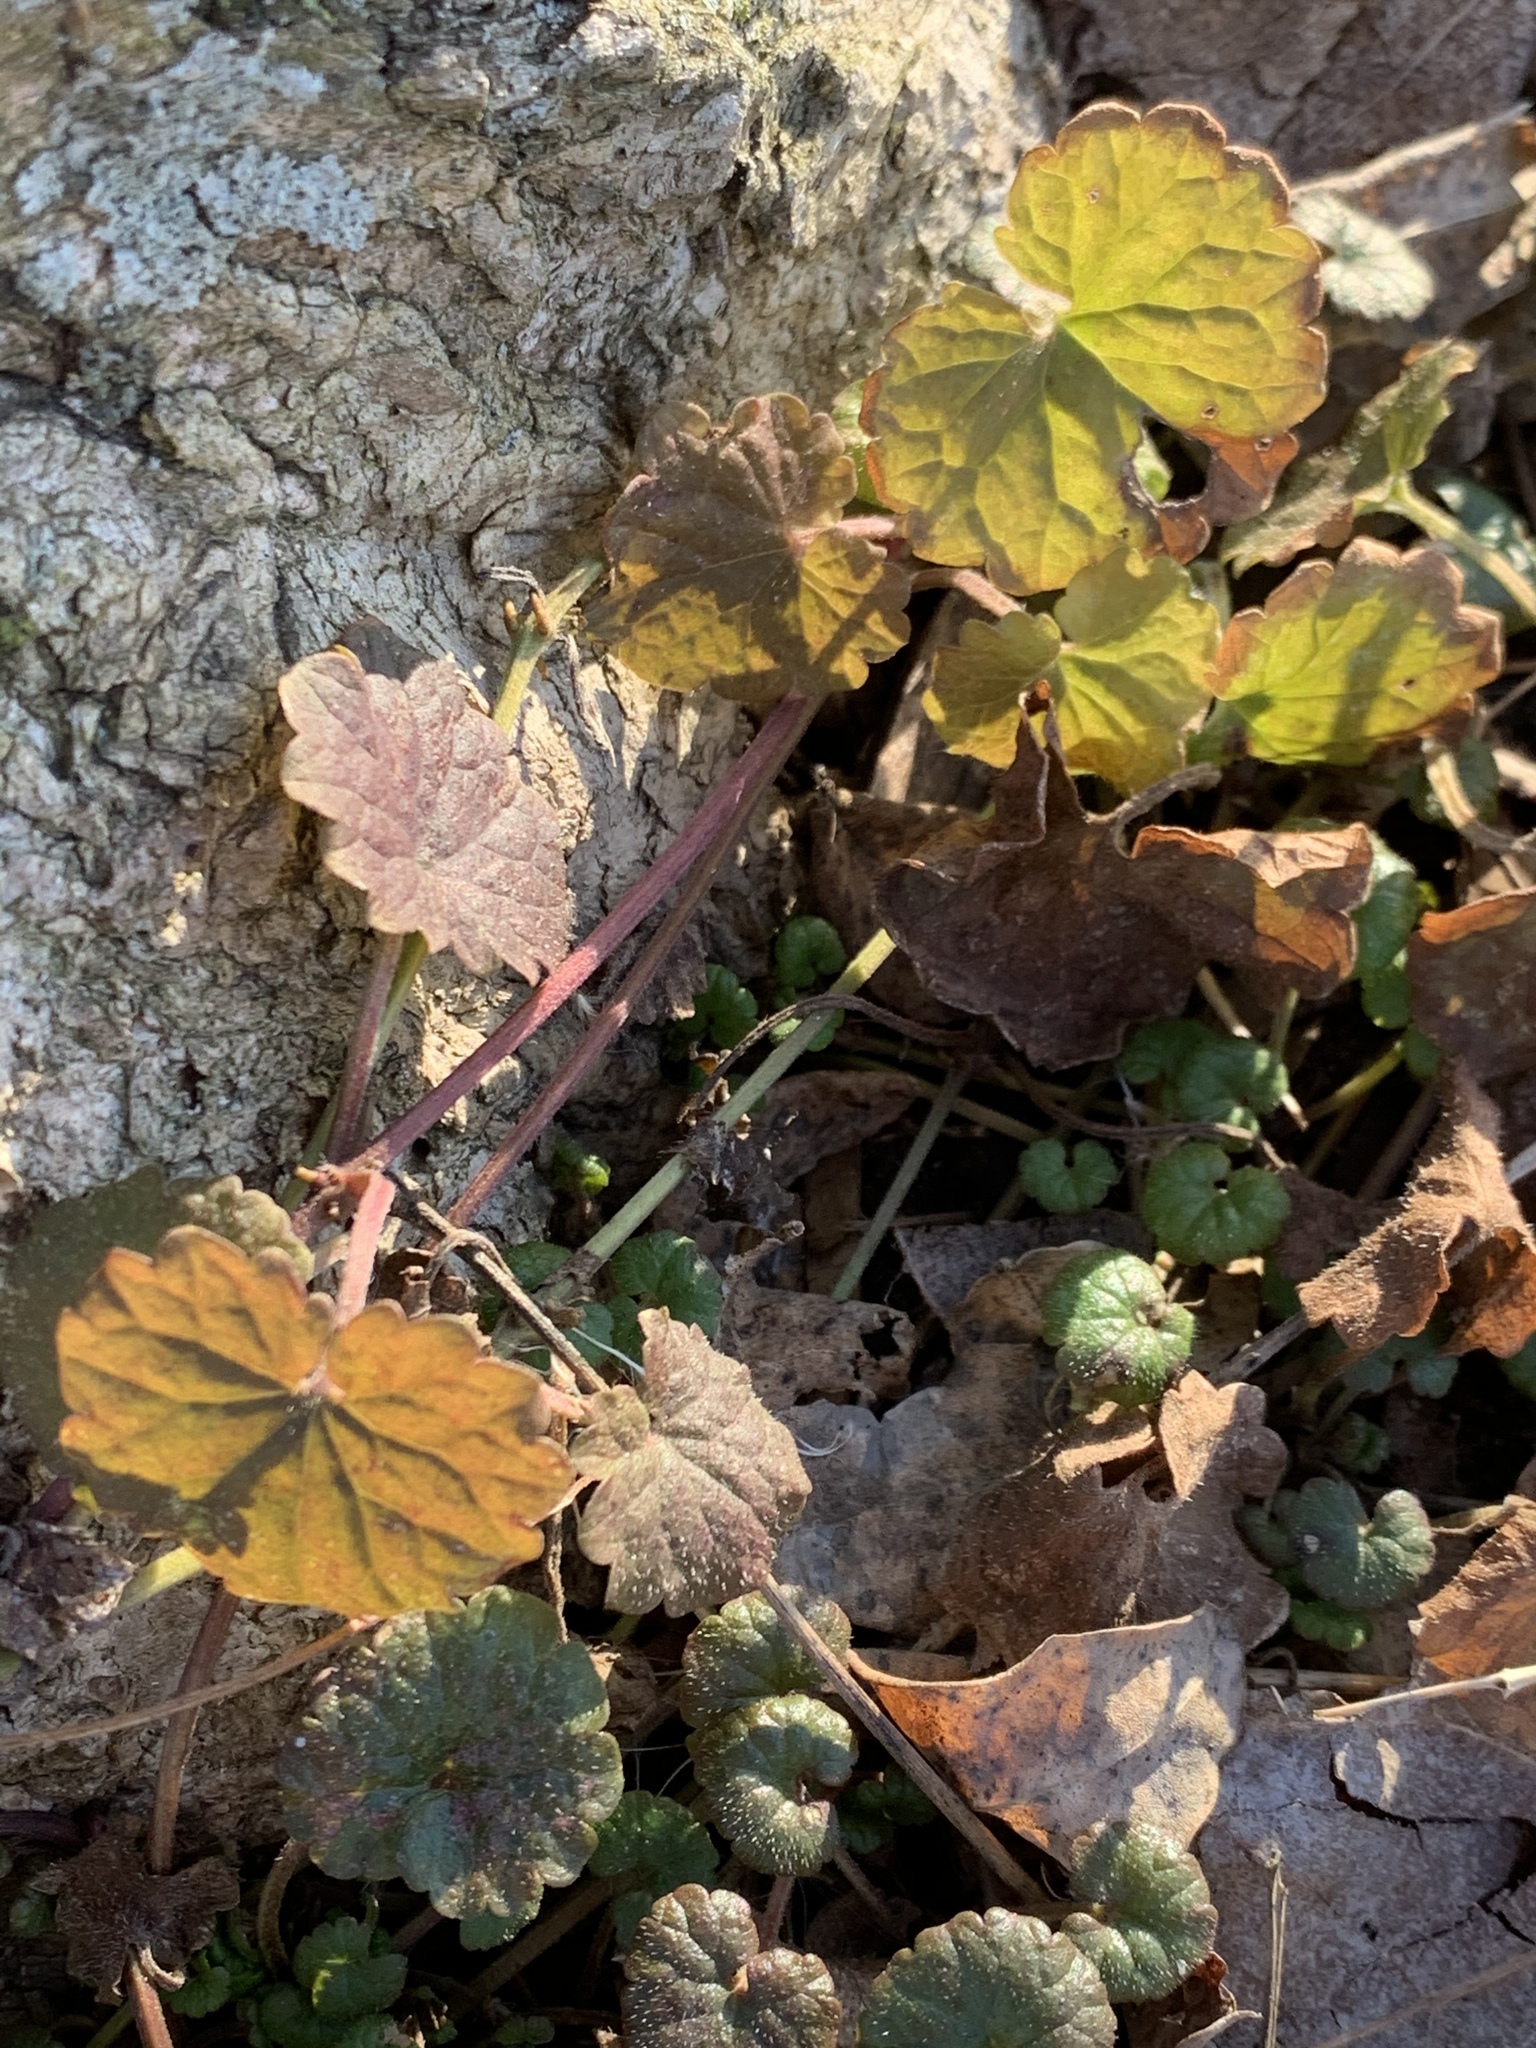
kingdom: Plantae
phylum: Tracheophyta
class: Magnoliopsida
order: Lamiales
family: Lamiaceae
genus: Glechoma
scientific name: Glechoma hederacea
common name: Ground ivy
